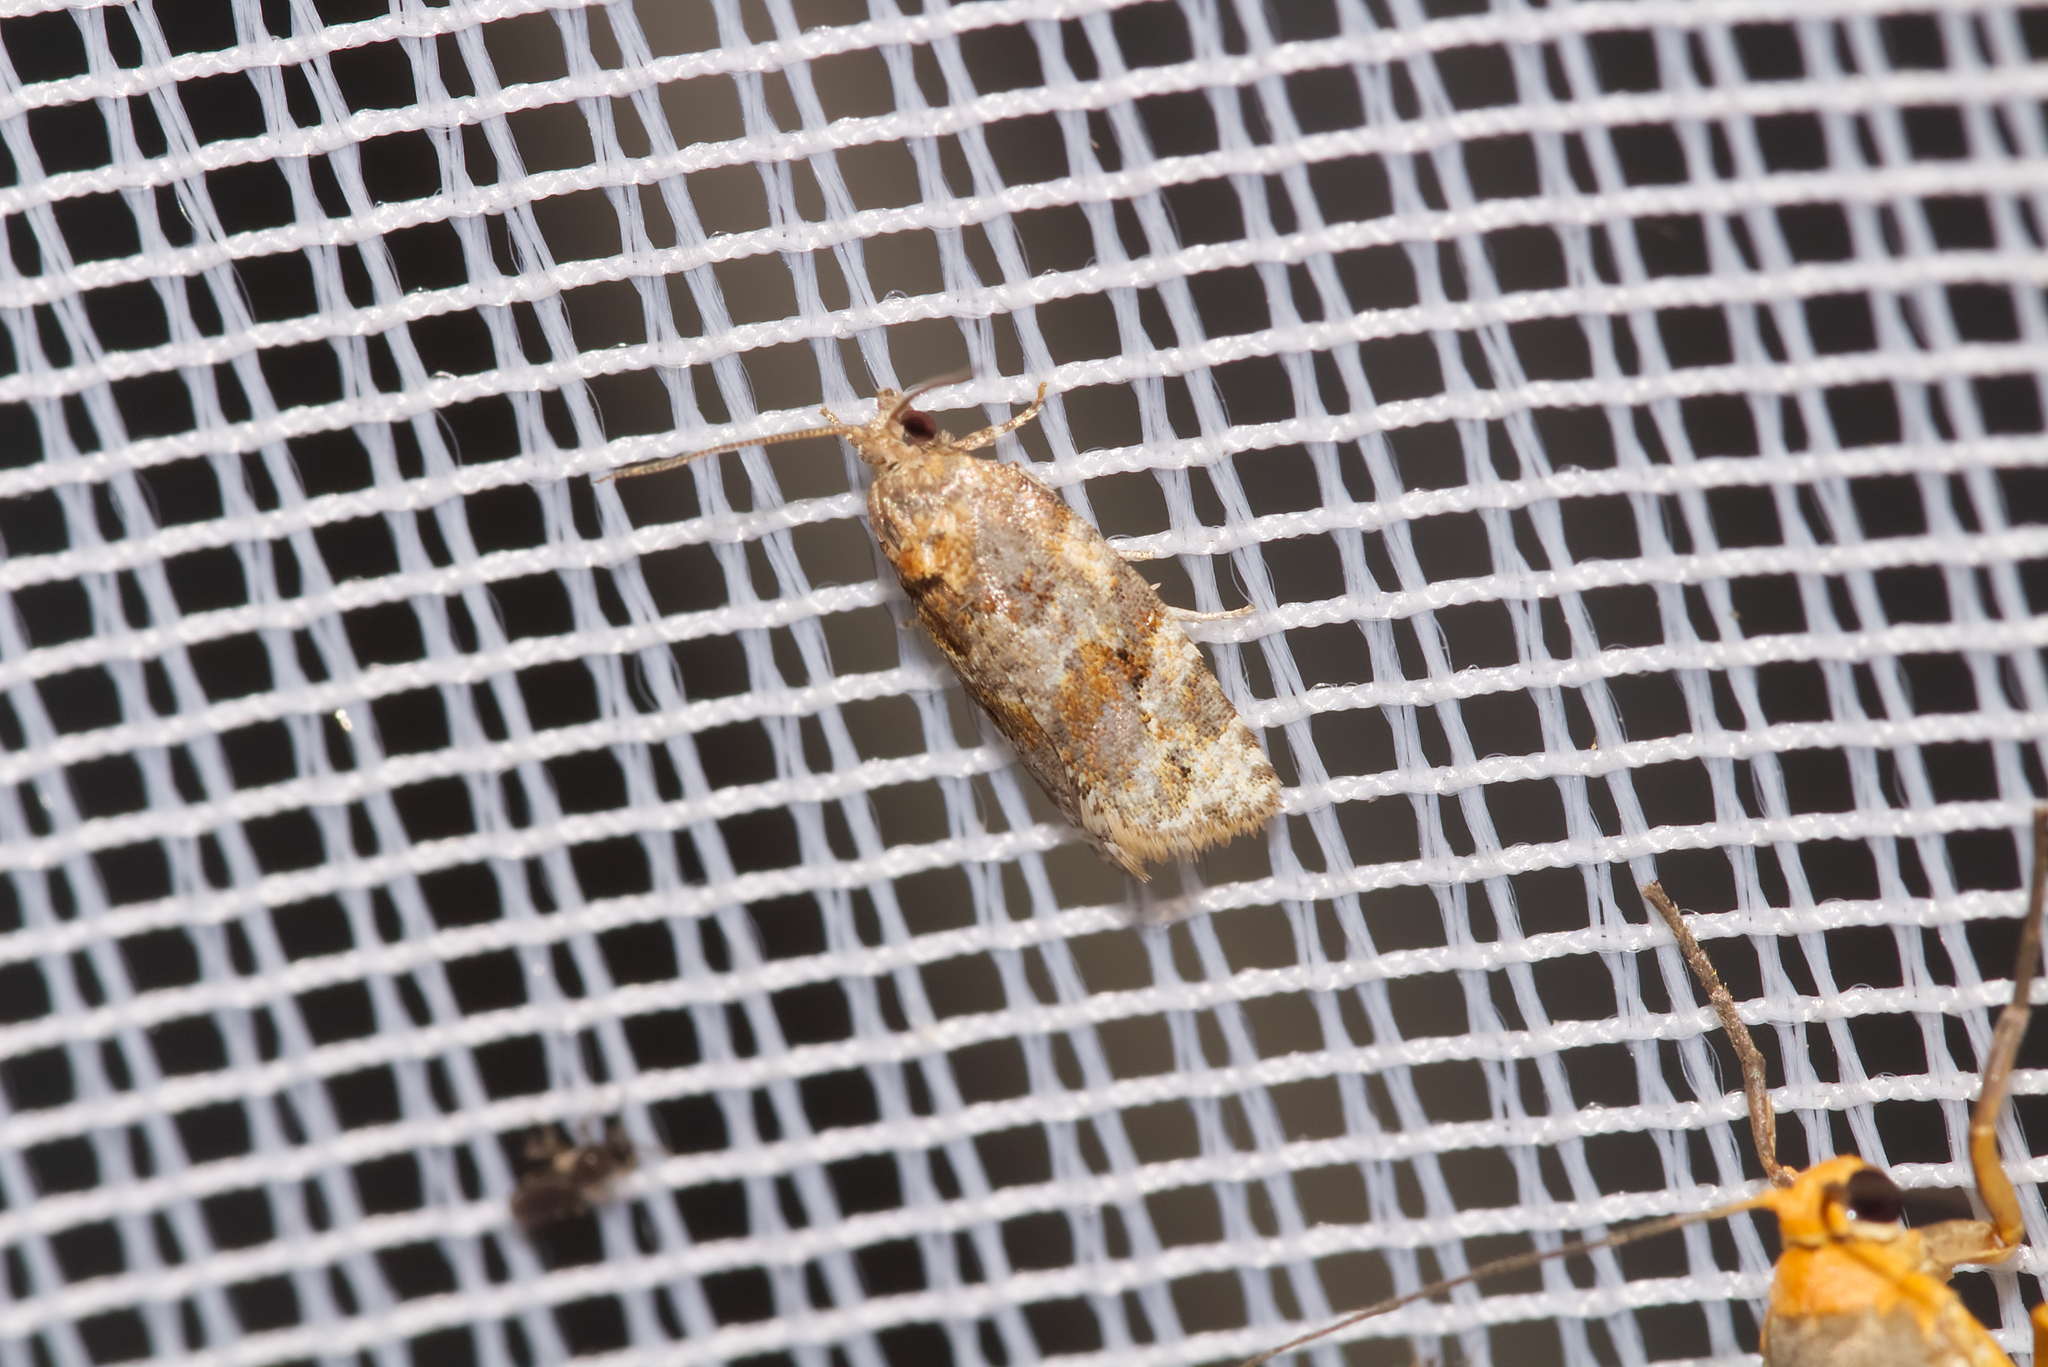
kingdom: Animalia
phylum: Arthropoda
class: Insecta
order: Lepidoptera
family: Tortricidae
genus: Argyrotaenia
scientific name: Argyrotaenia ljungiana
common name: Heather twist
